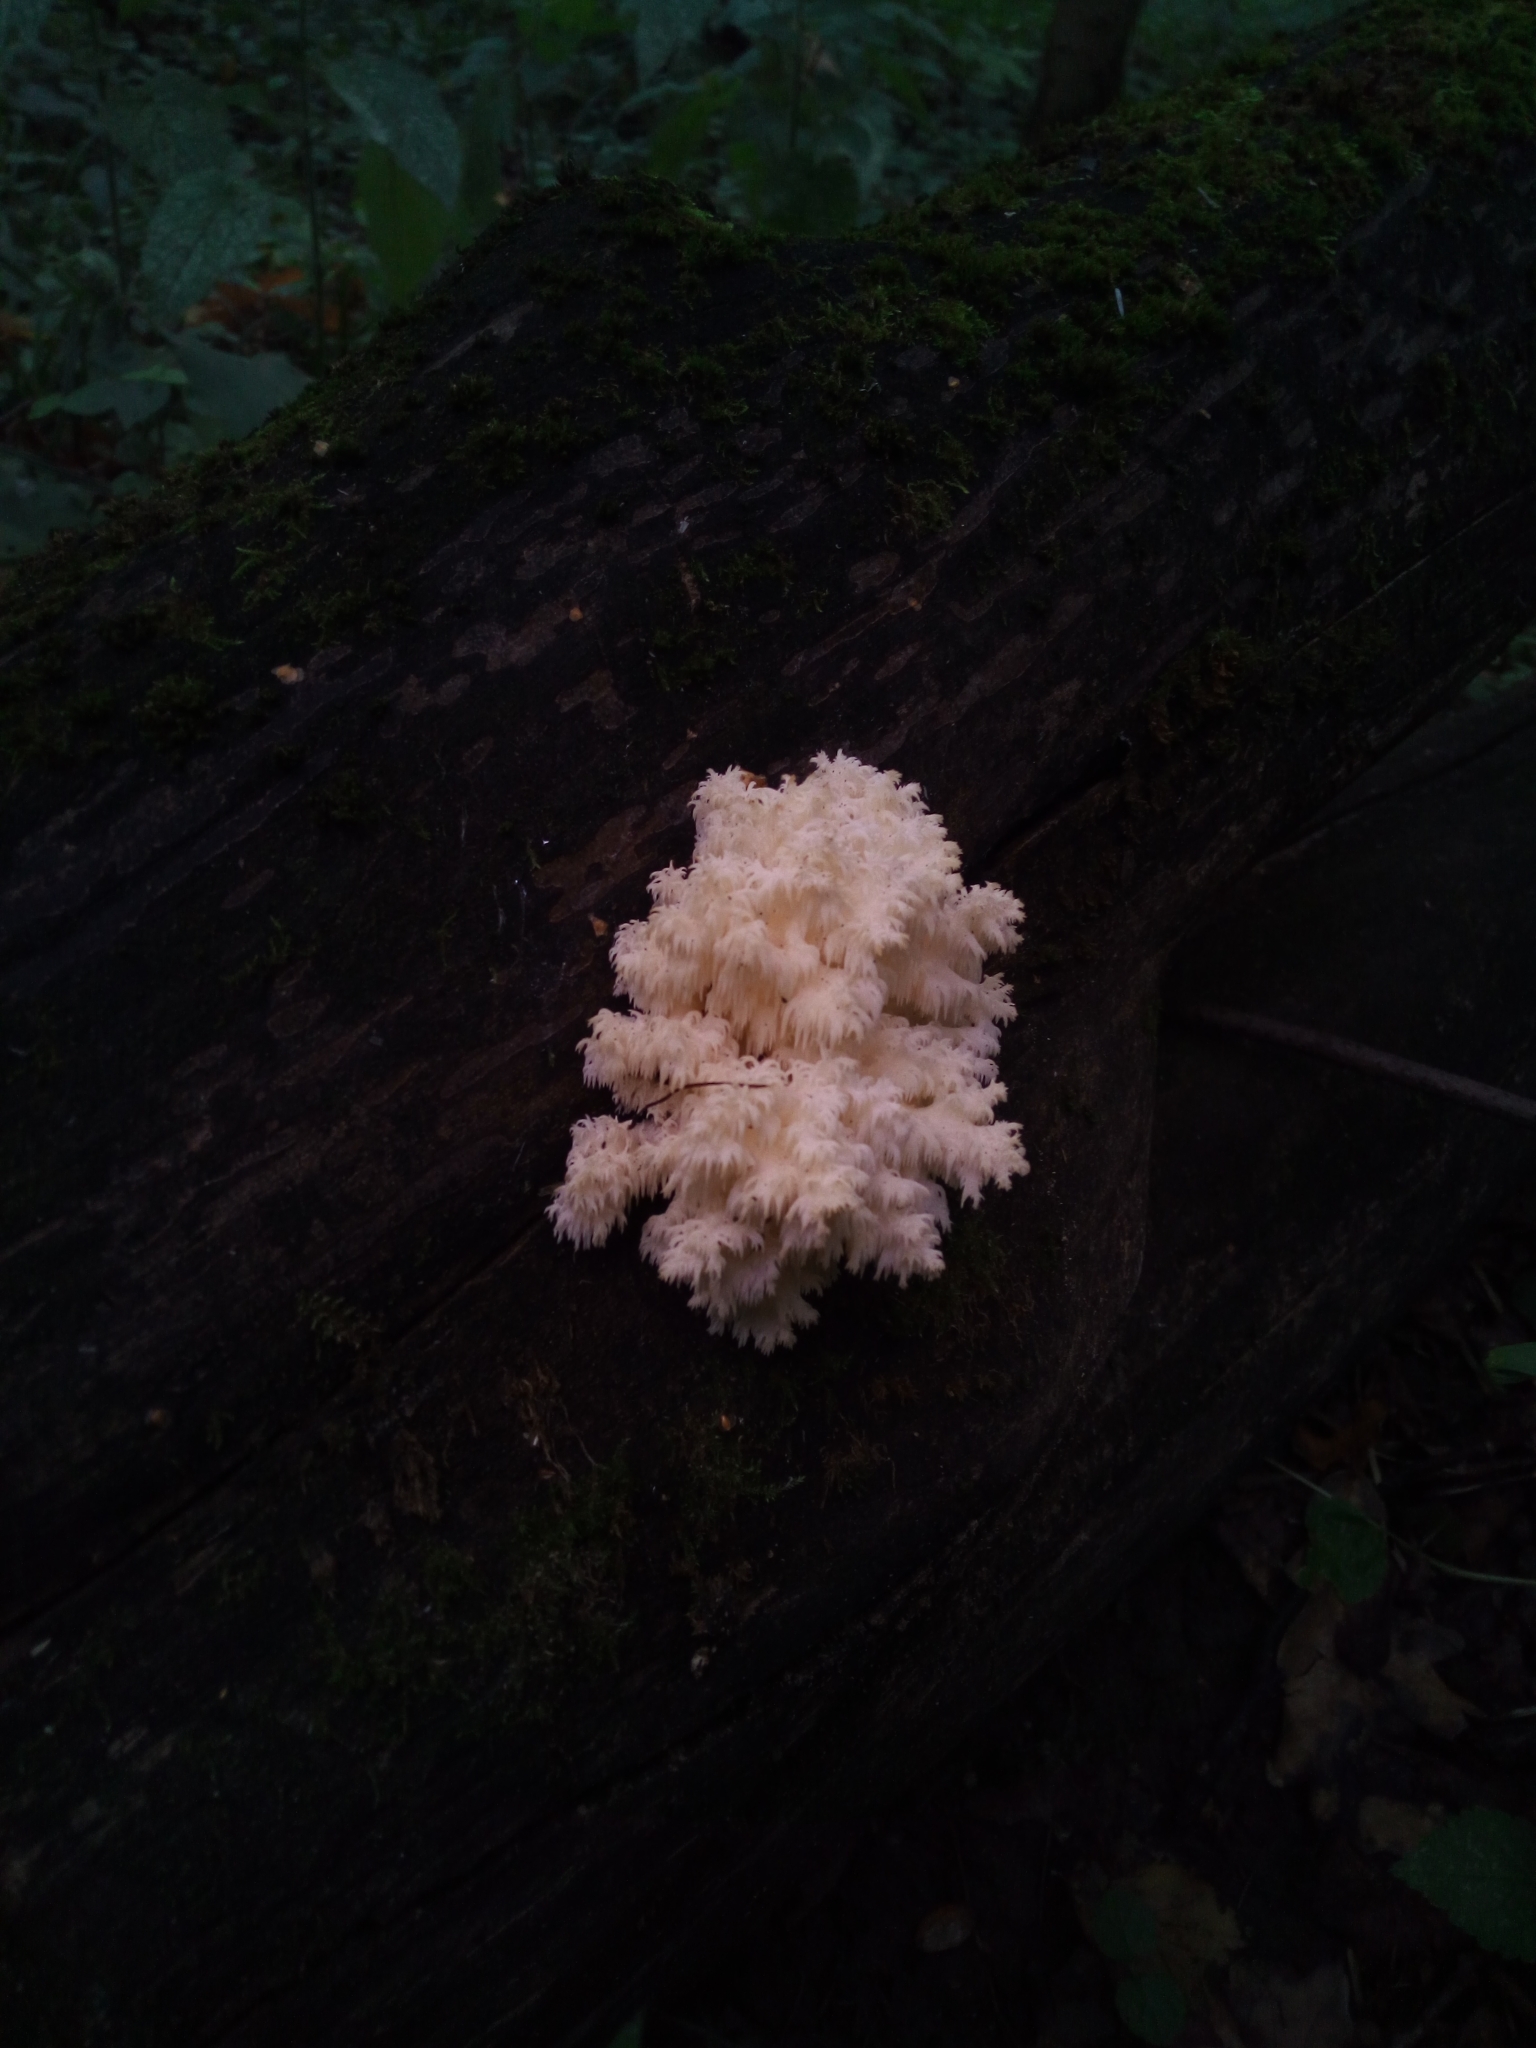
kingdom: Fungi
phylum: Basidiomycota
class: Agaricomycetes
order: Russulales
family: Hericiaceae
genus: Hericium
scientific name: Hericium coralloides
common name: Coral tooth
